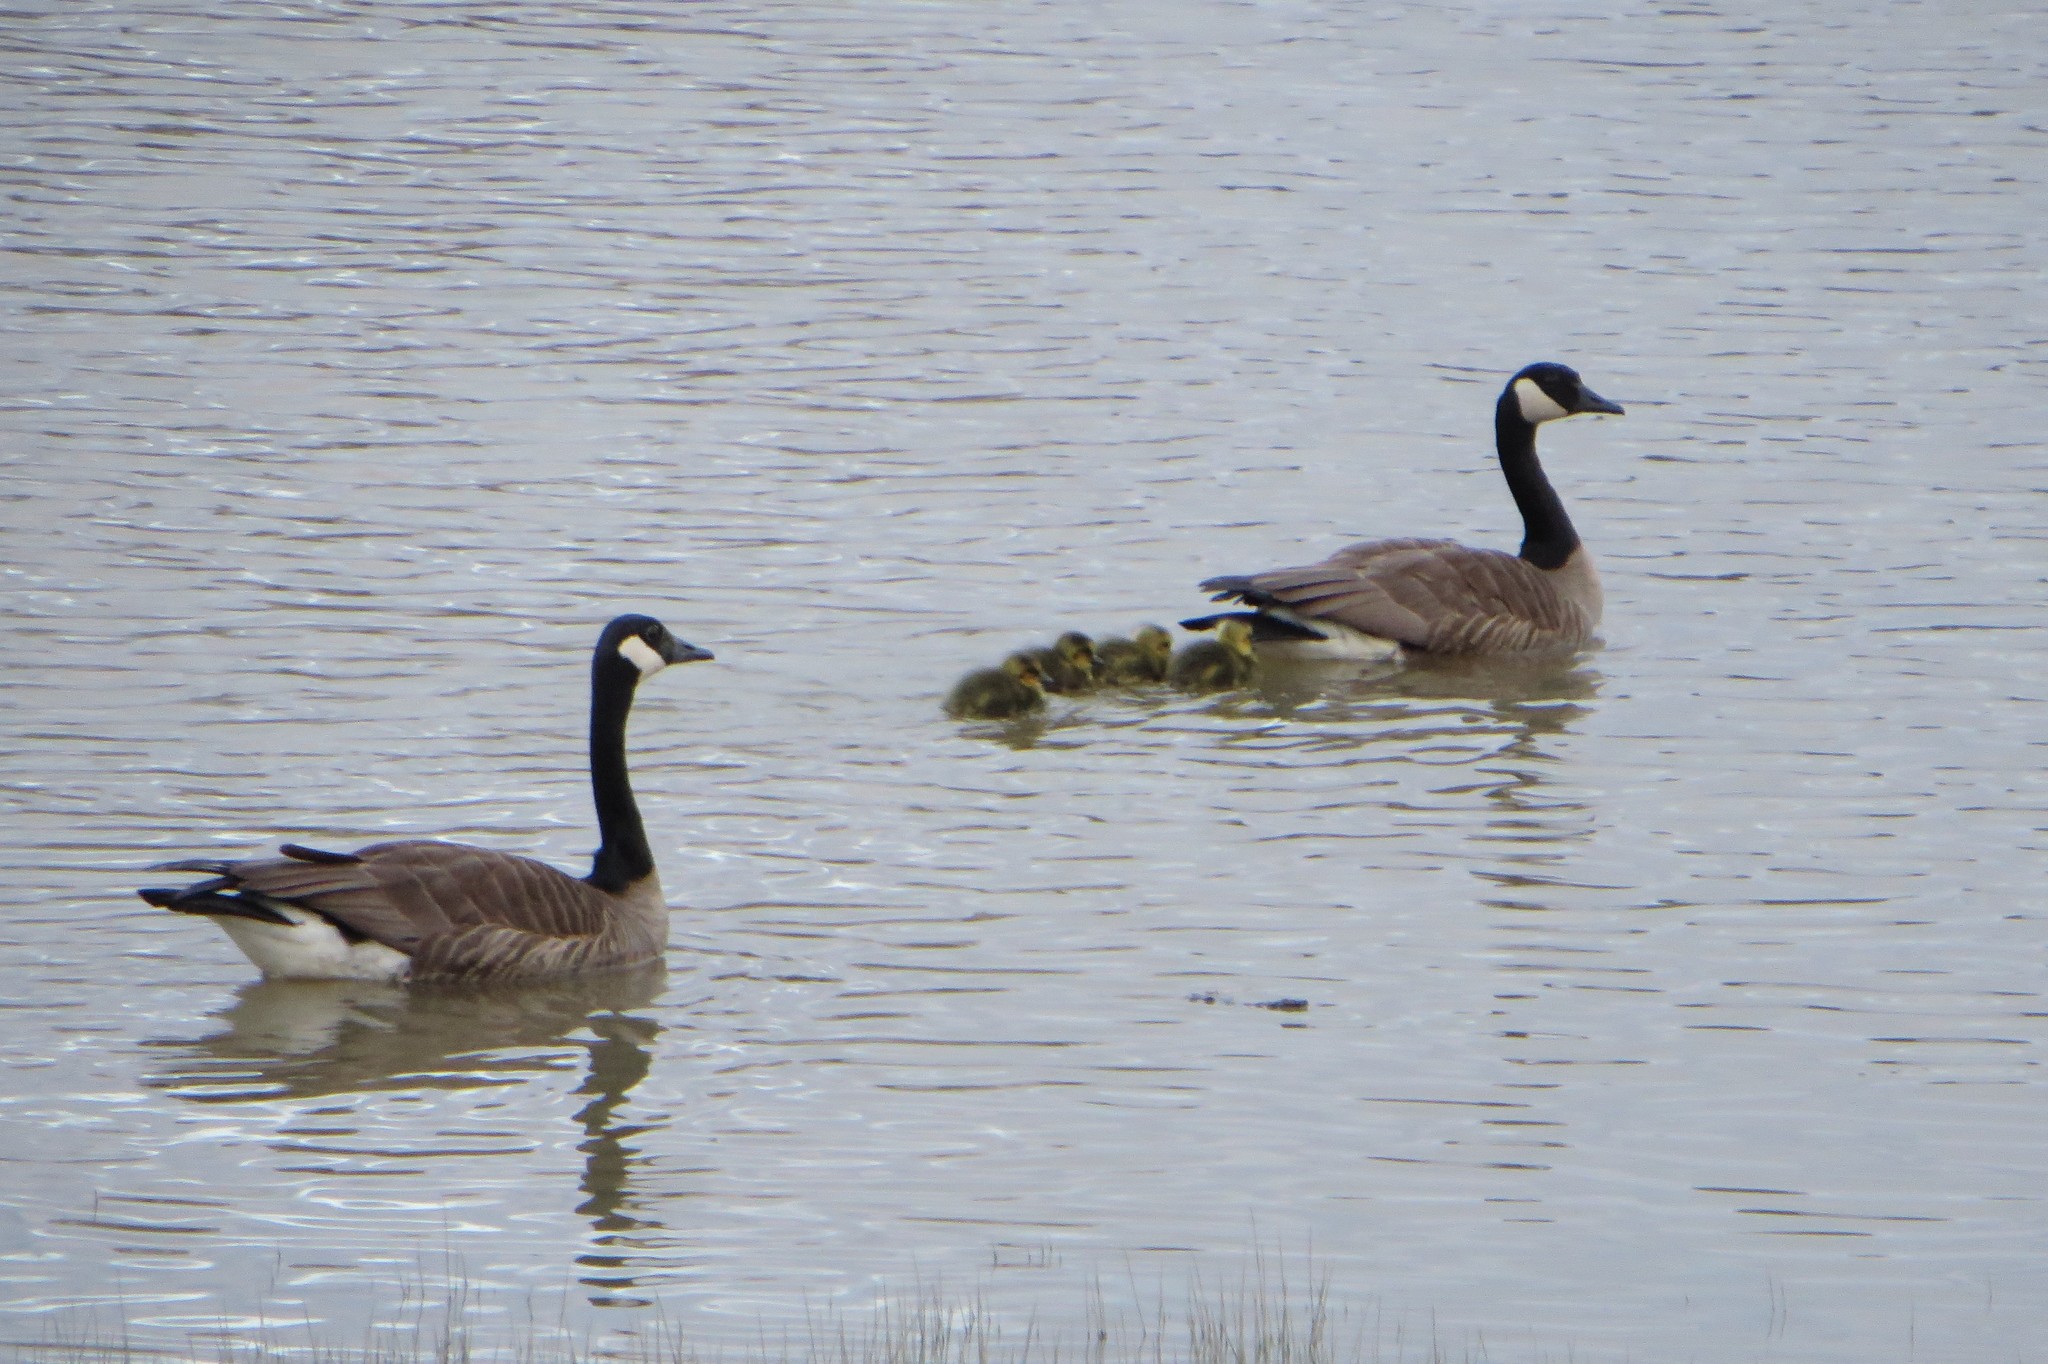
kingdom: Animalia
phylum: Chordata
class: Aves
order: Anseriformes
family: Anatidae
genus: Branta
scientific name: Branta canadensis
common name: Canada goose
